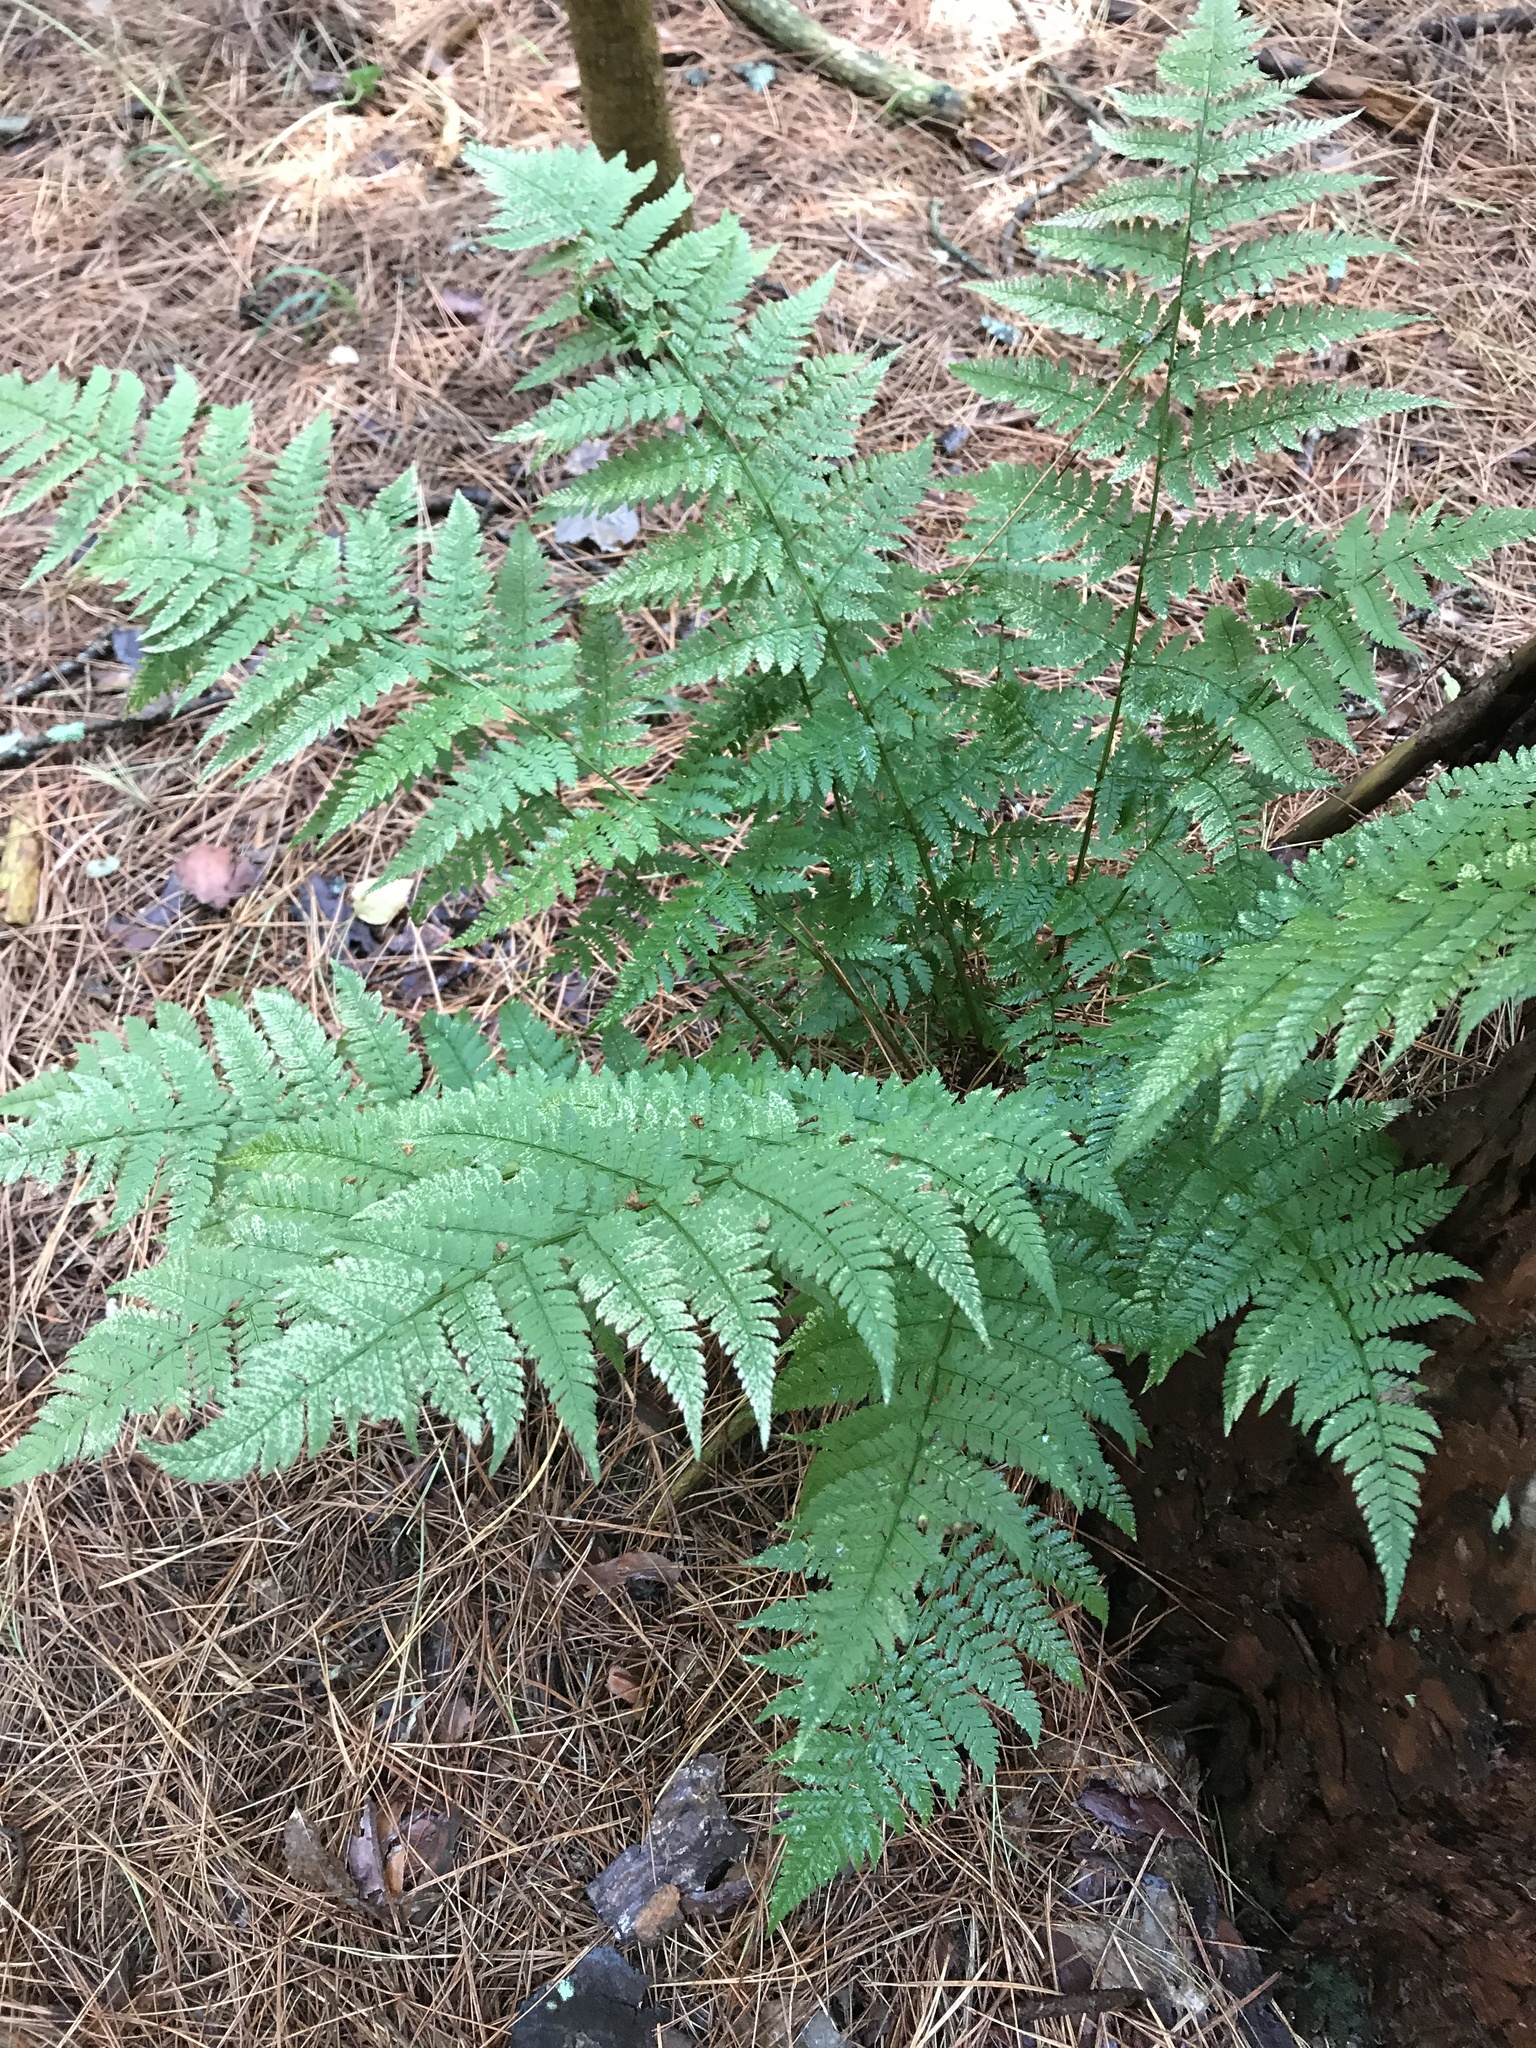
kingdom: Plantae
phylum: Tracheophyta
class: Polypodiopsida
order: Polypodiales
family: Dryopteridaceae
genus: Dryopteris
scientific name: Dryopteris intermedia
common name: Evergreen wood fern
